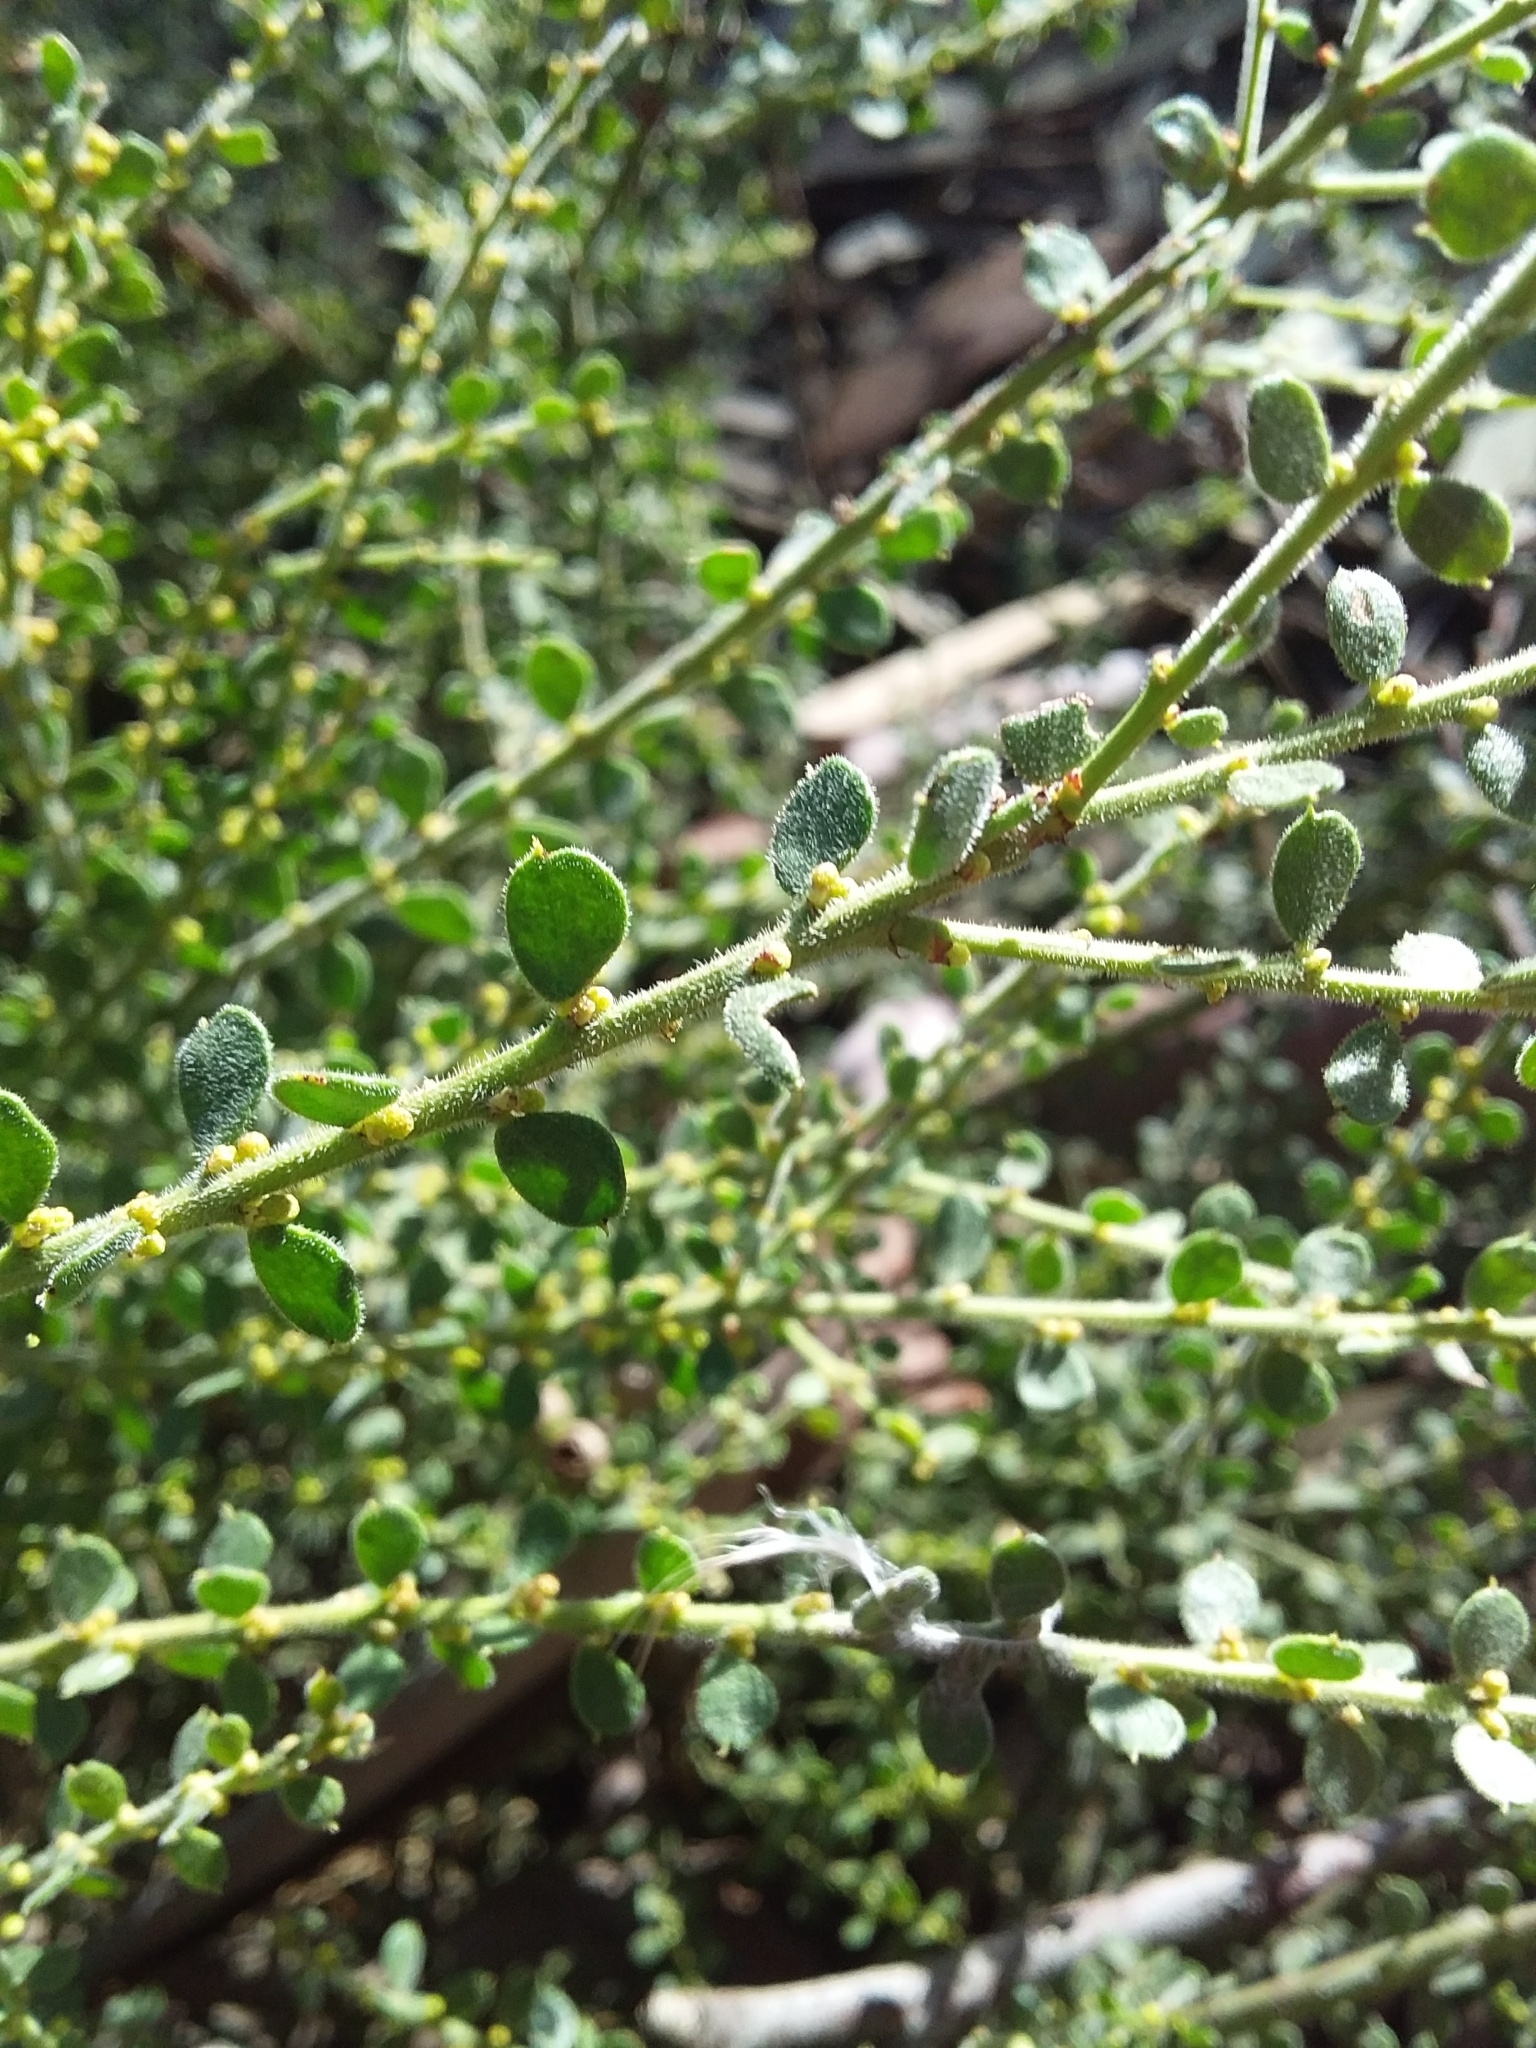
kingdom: Plantae
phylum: Tracheophyta
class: Magnoliopsida
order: Fabales
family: Fabaceae
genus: Acacia
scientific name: Acacia acinacea
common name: Gold-dust acacia
